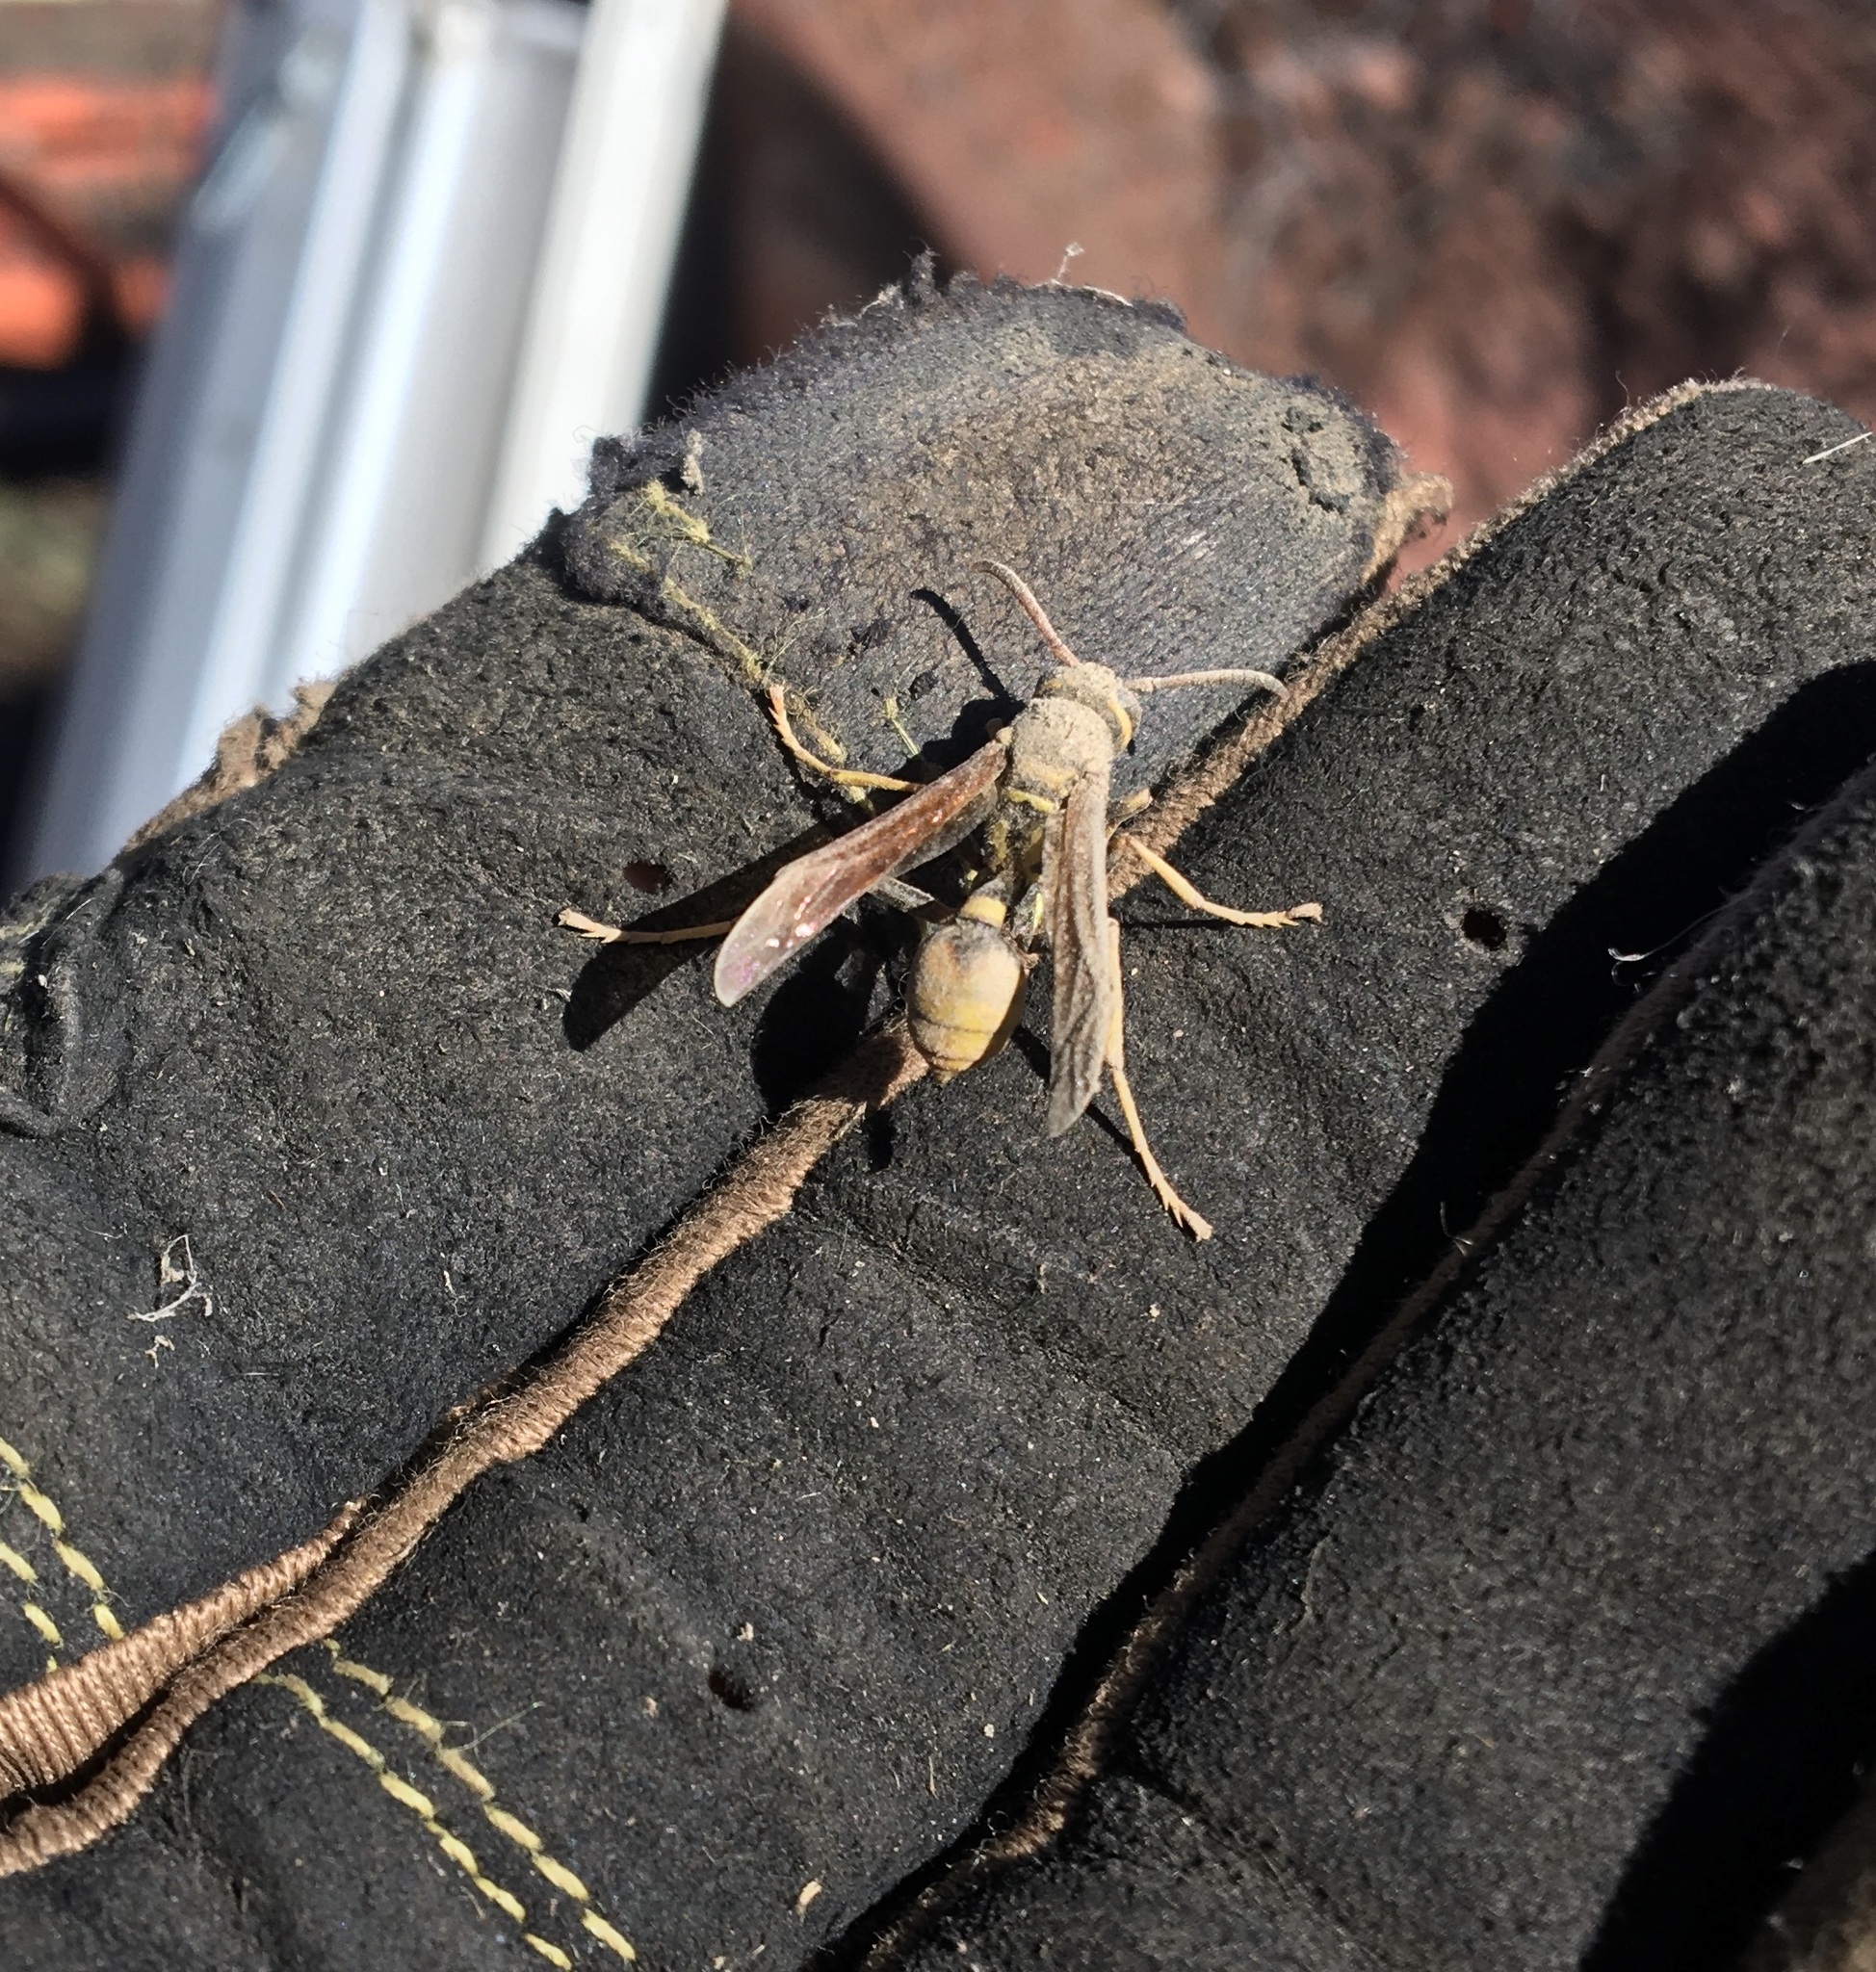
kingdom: Animalia
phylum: Arthropoda
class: Insecta
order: Hymenoptera
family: Vespidae
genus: Mischocyttarus
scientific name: Mischocyttarus flavitarsis
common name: Wasp
